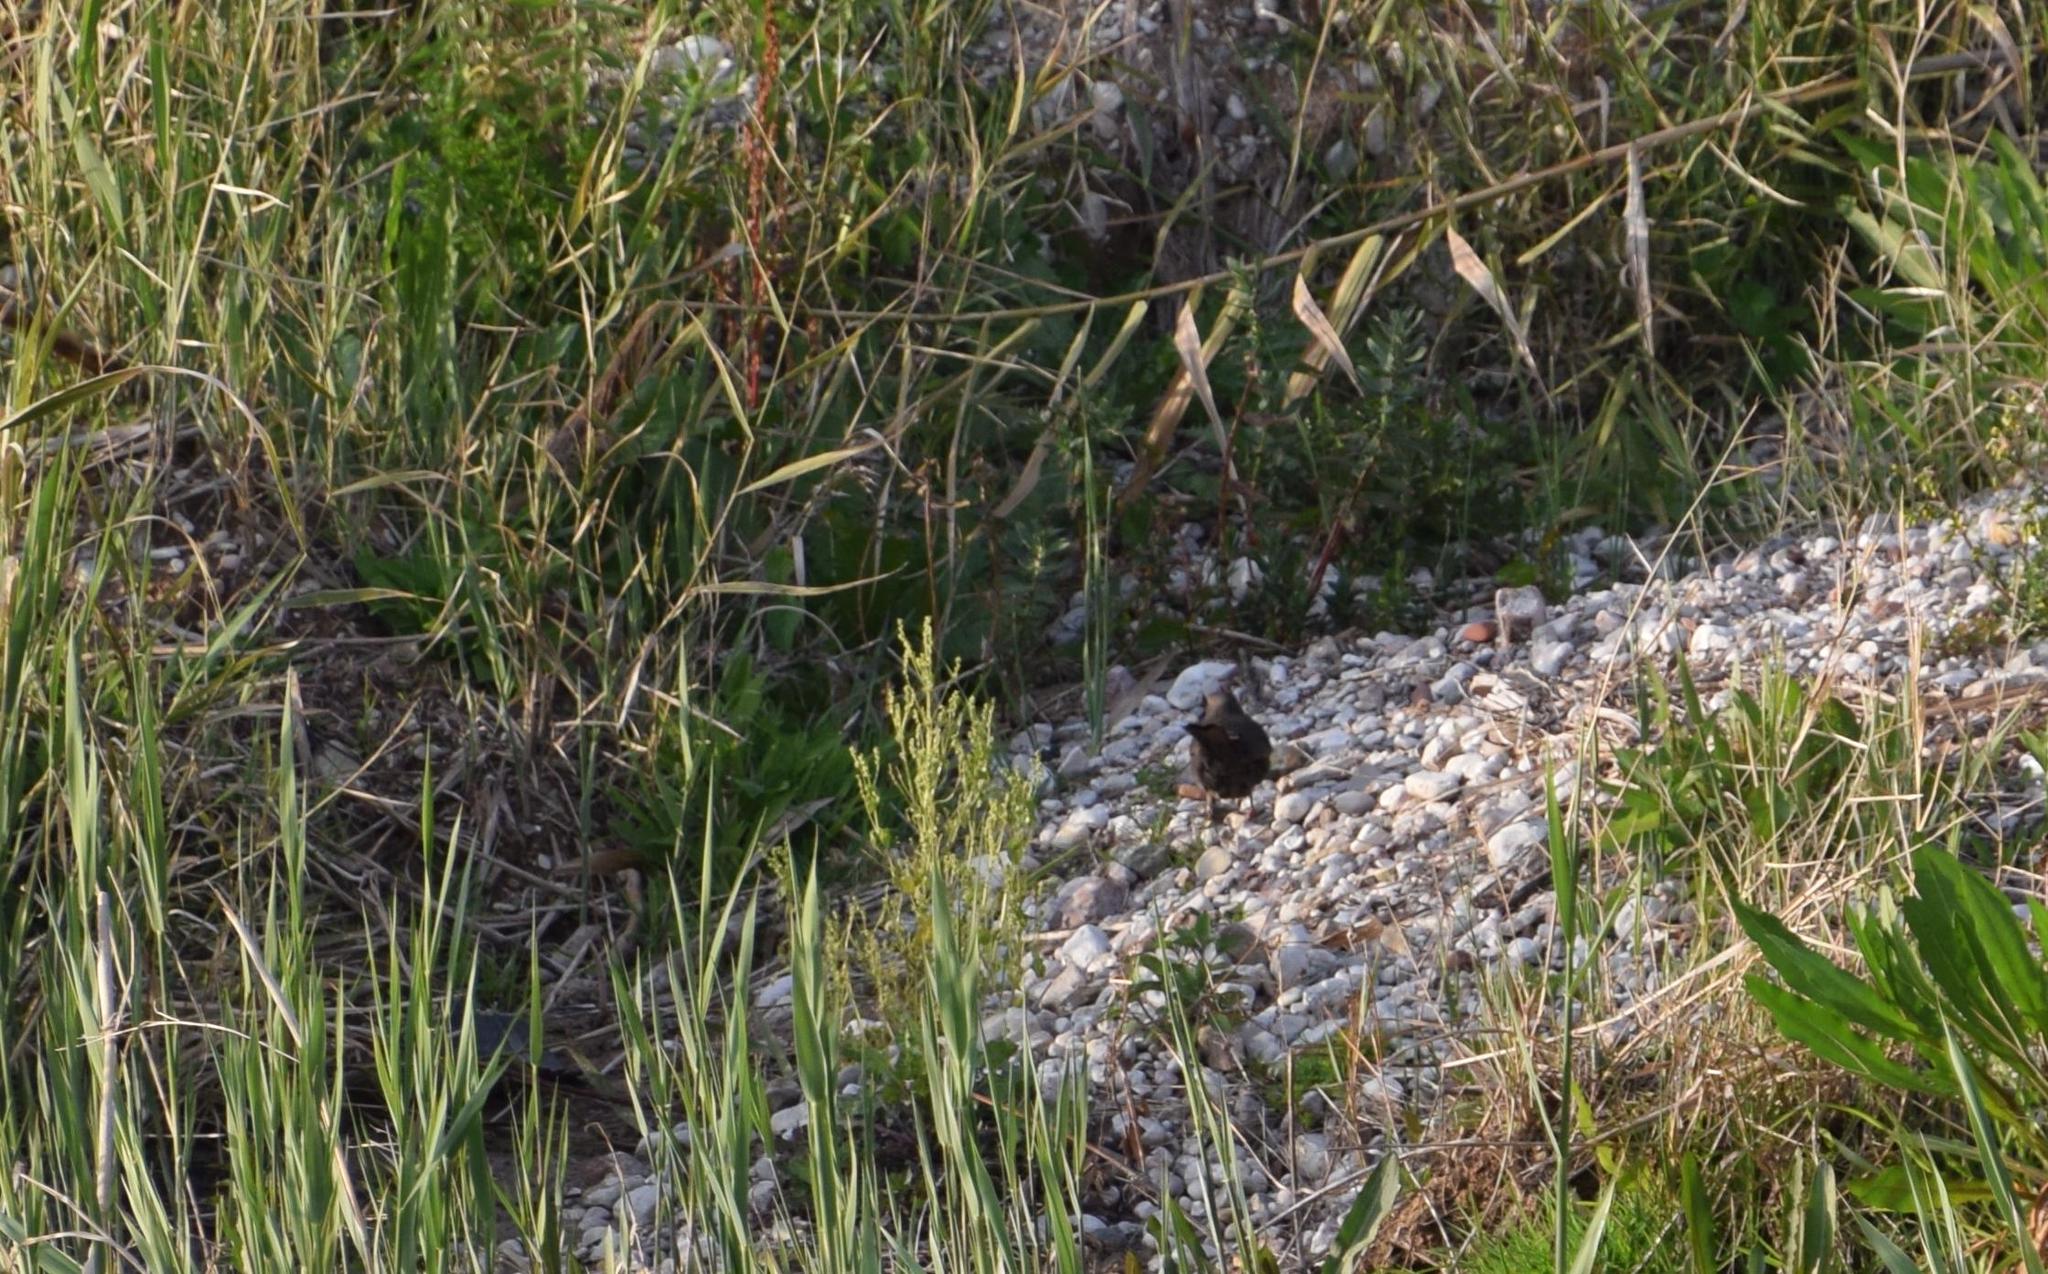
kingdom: Animalia
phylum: Chordata
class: Aves
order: Passeriformes
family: Turdidae
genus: Turdus
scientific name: Turdus merula
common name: Common blackbird
